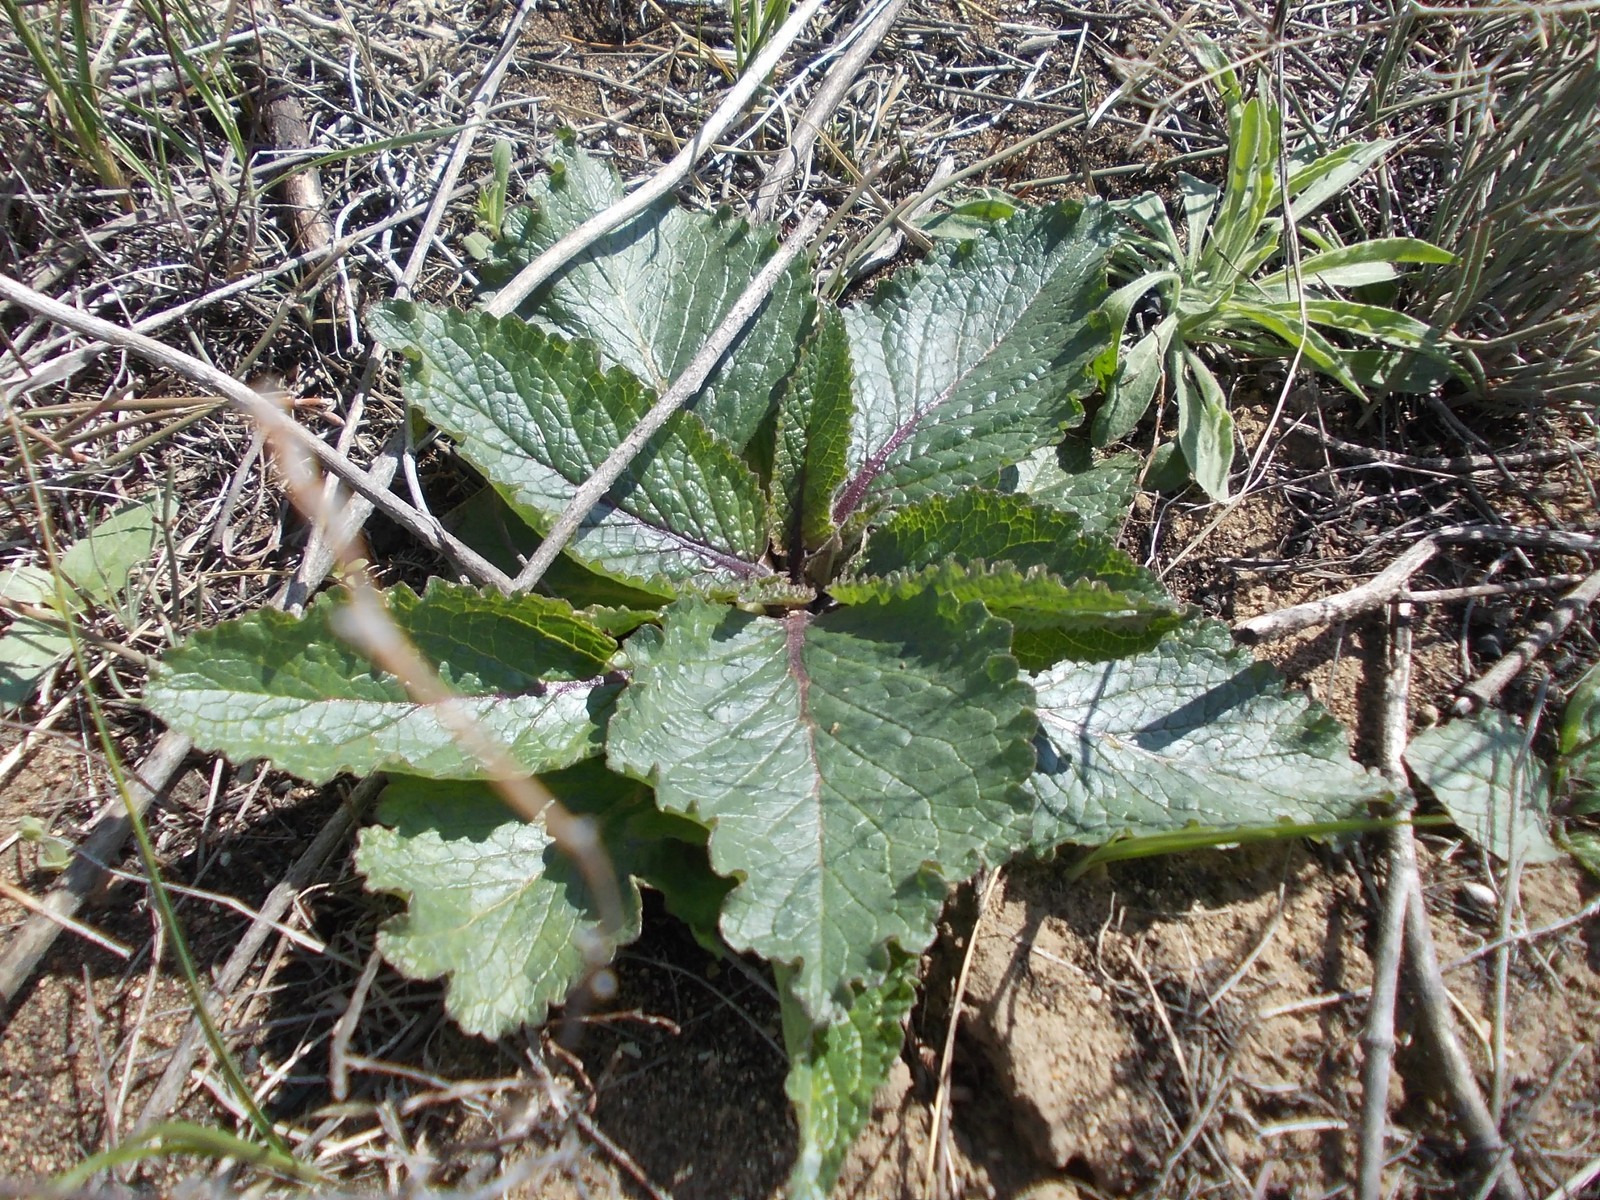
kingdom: Plantae
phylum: Tracheophyta
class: Magnoliopsida
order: Lamiales
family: Scrophulariaceae
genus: Verbascum
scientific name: Verbascum phoeniceum
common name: Purple mullein
